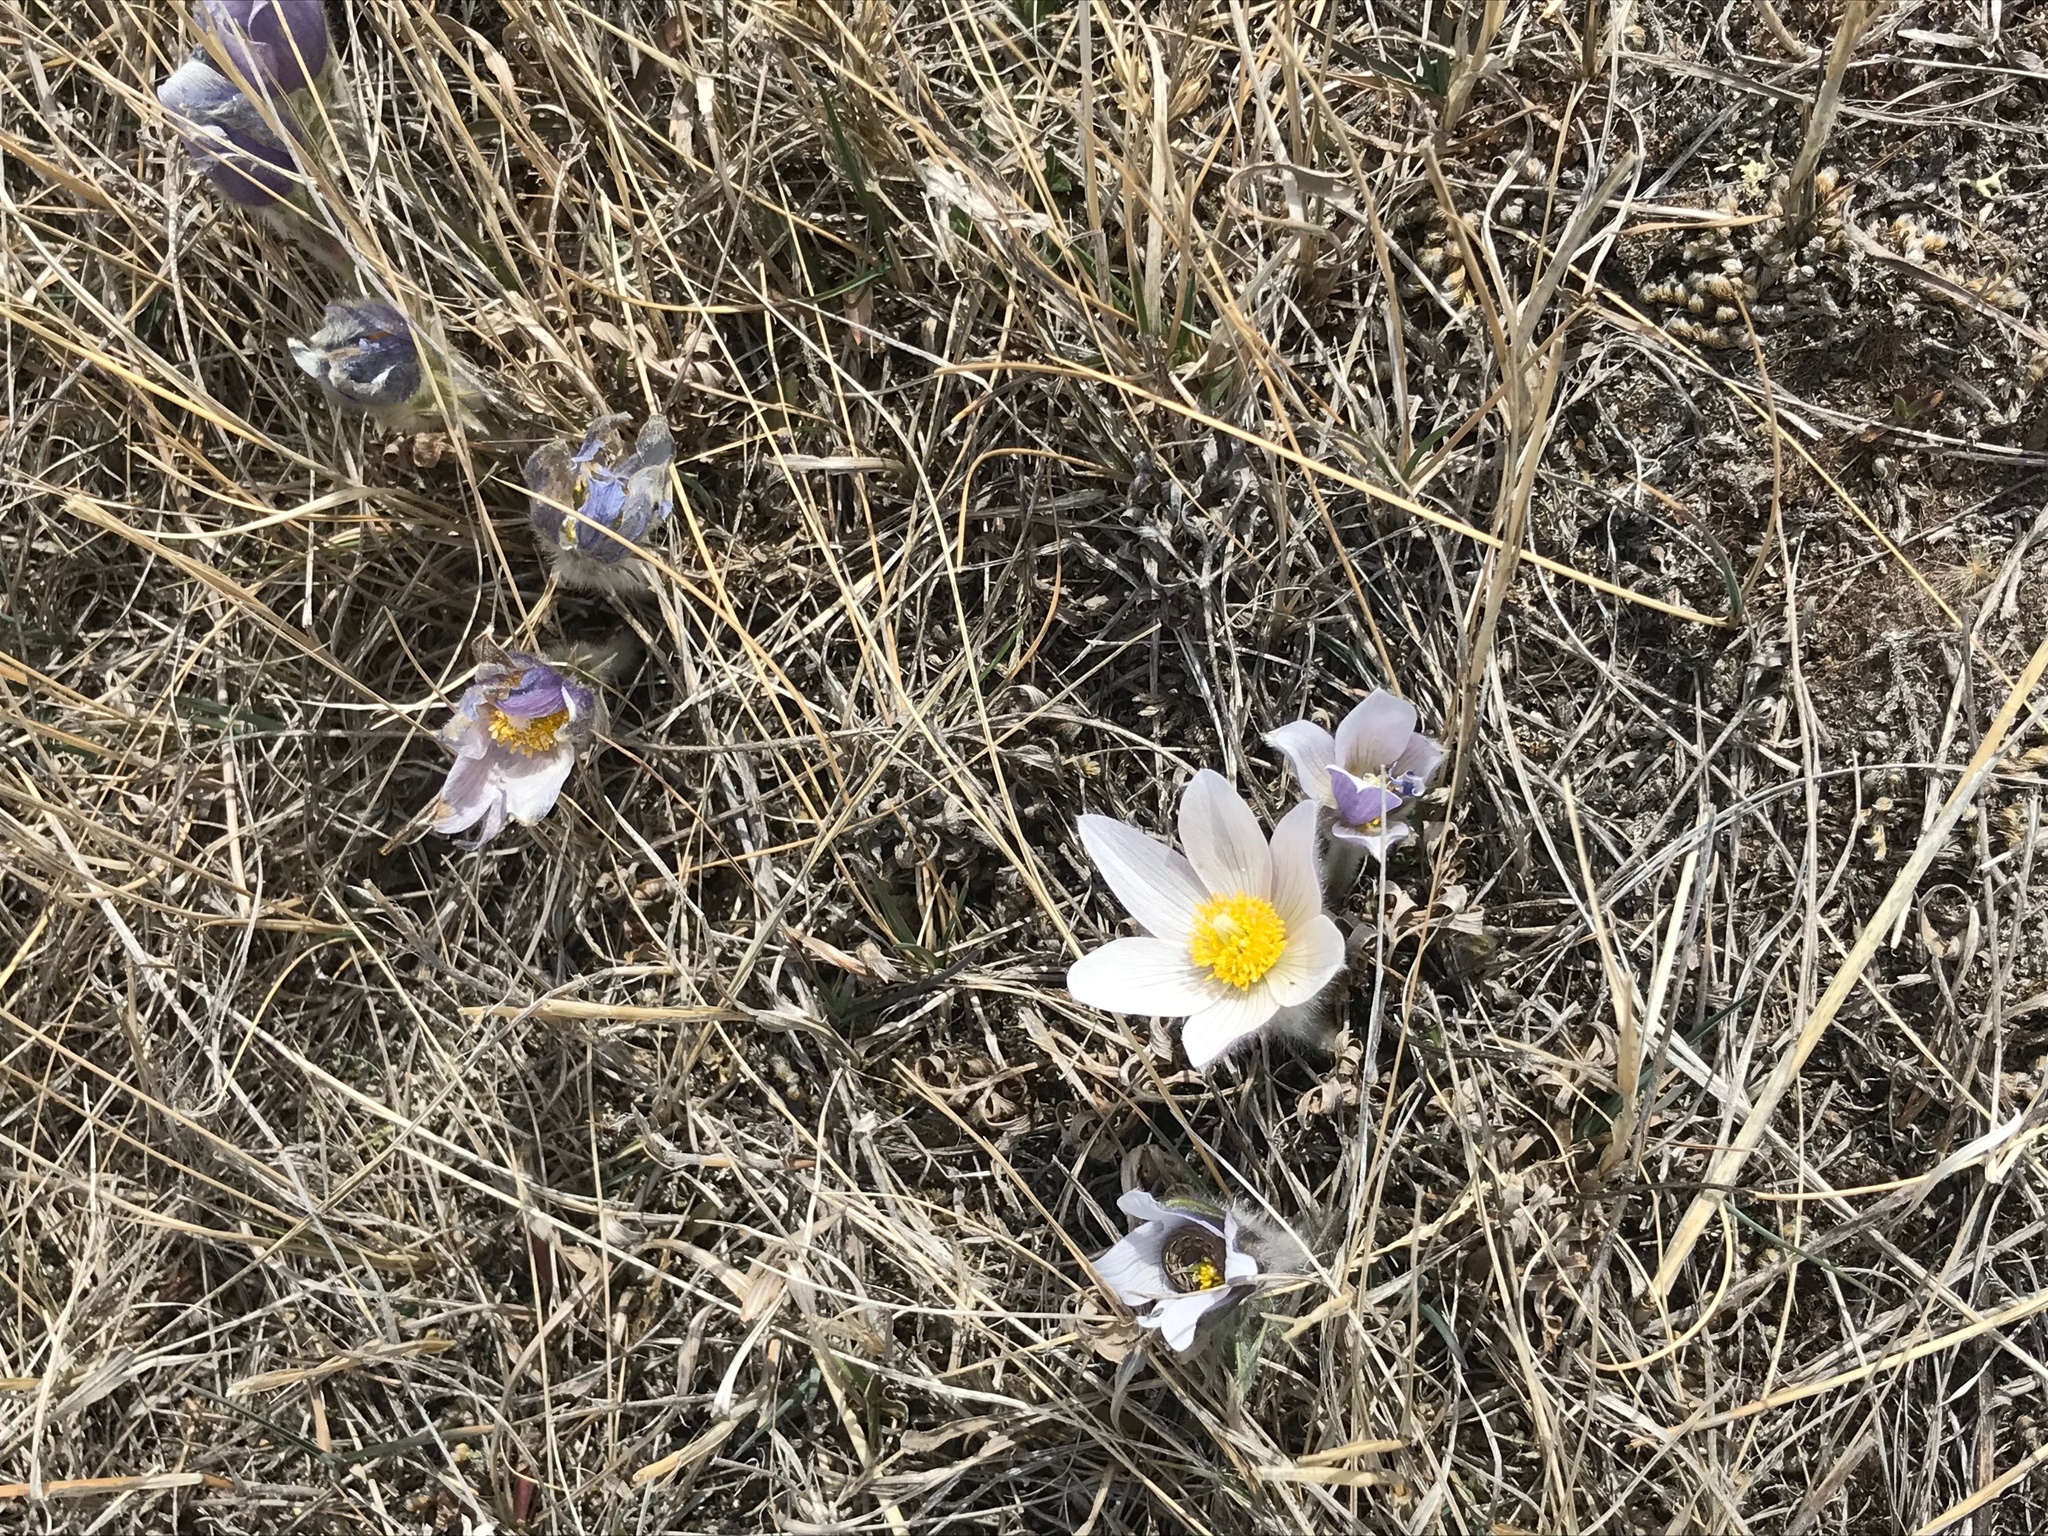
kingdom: Plantae
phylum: Tracheophyta
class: Magnoliopsida
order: Ranunculales
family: Ranunculaceae
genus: Pulsatilla
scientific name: Pulsatilla nuttalliana
